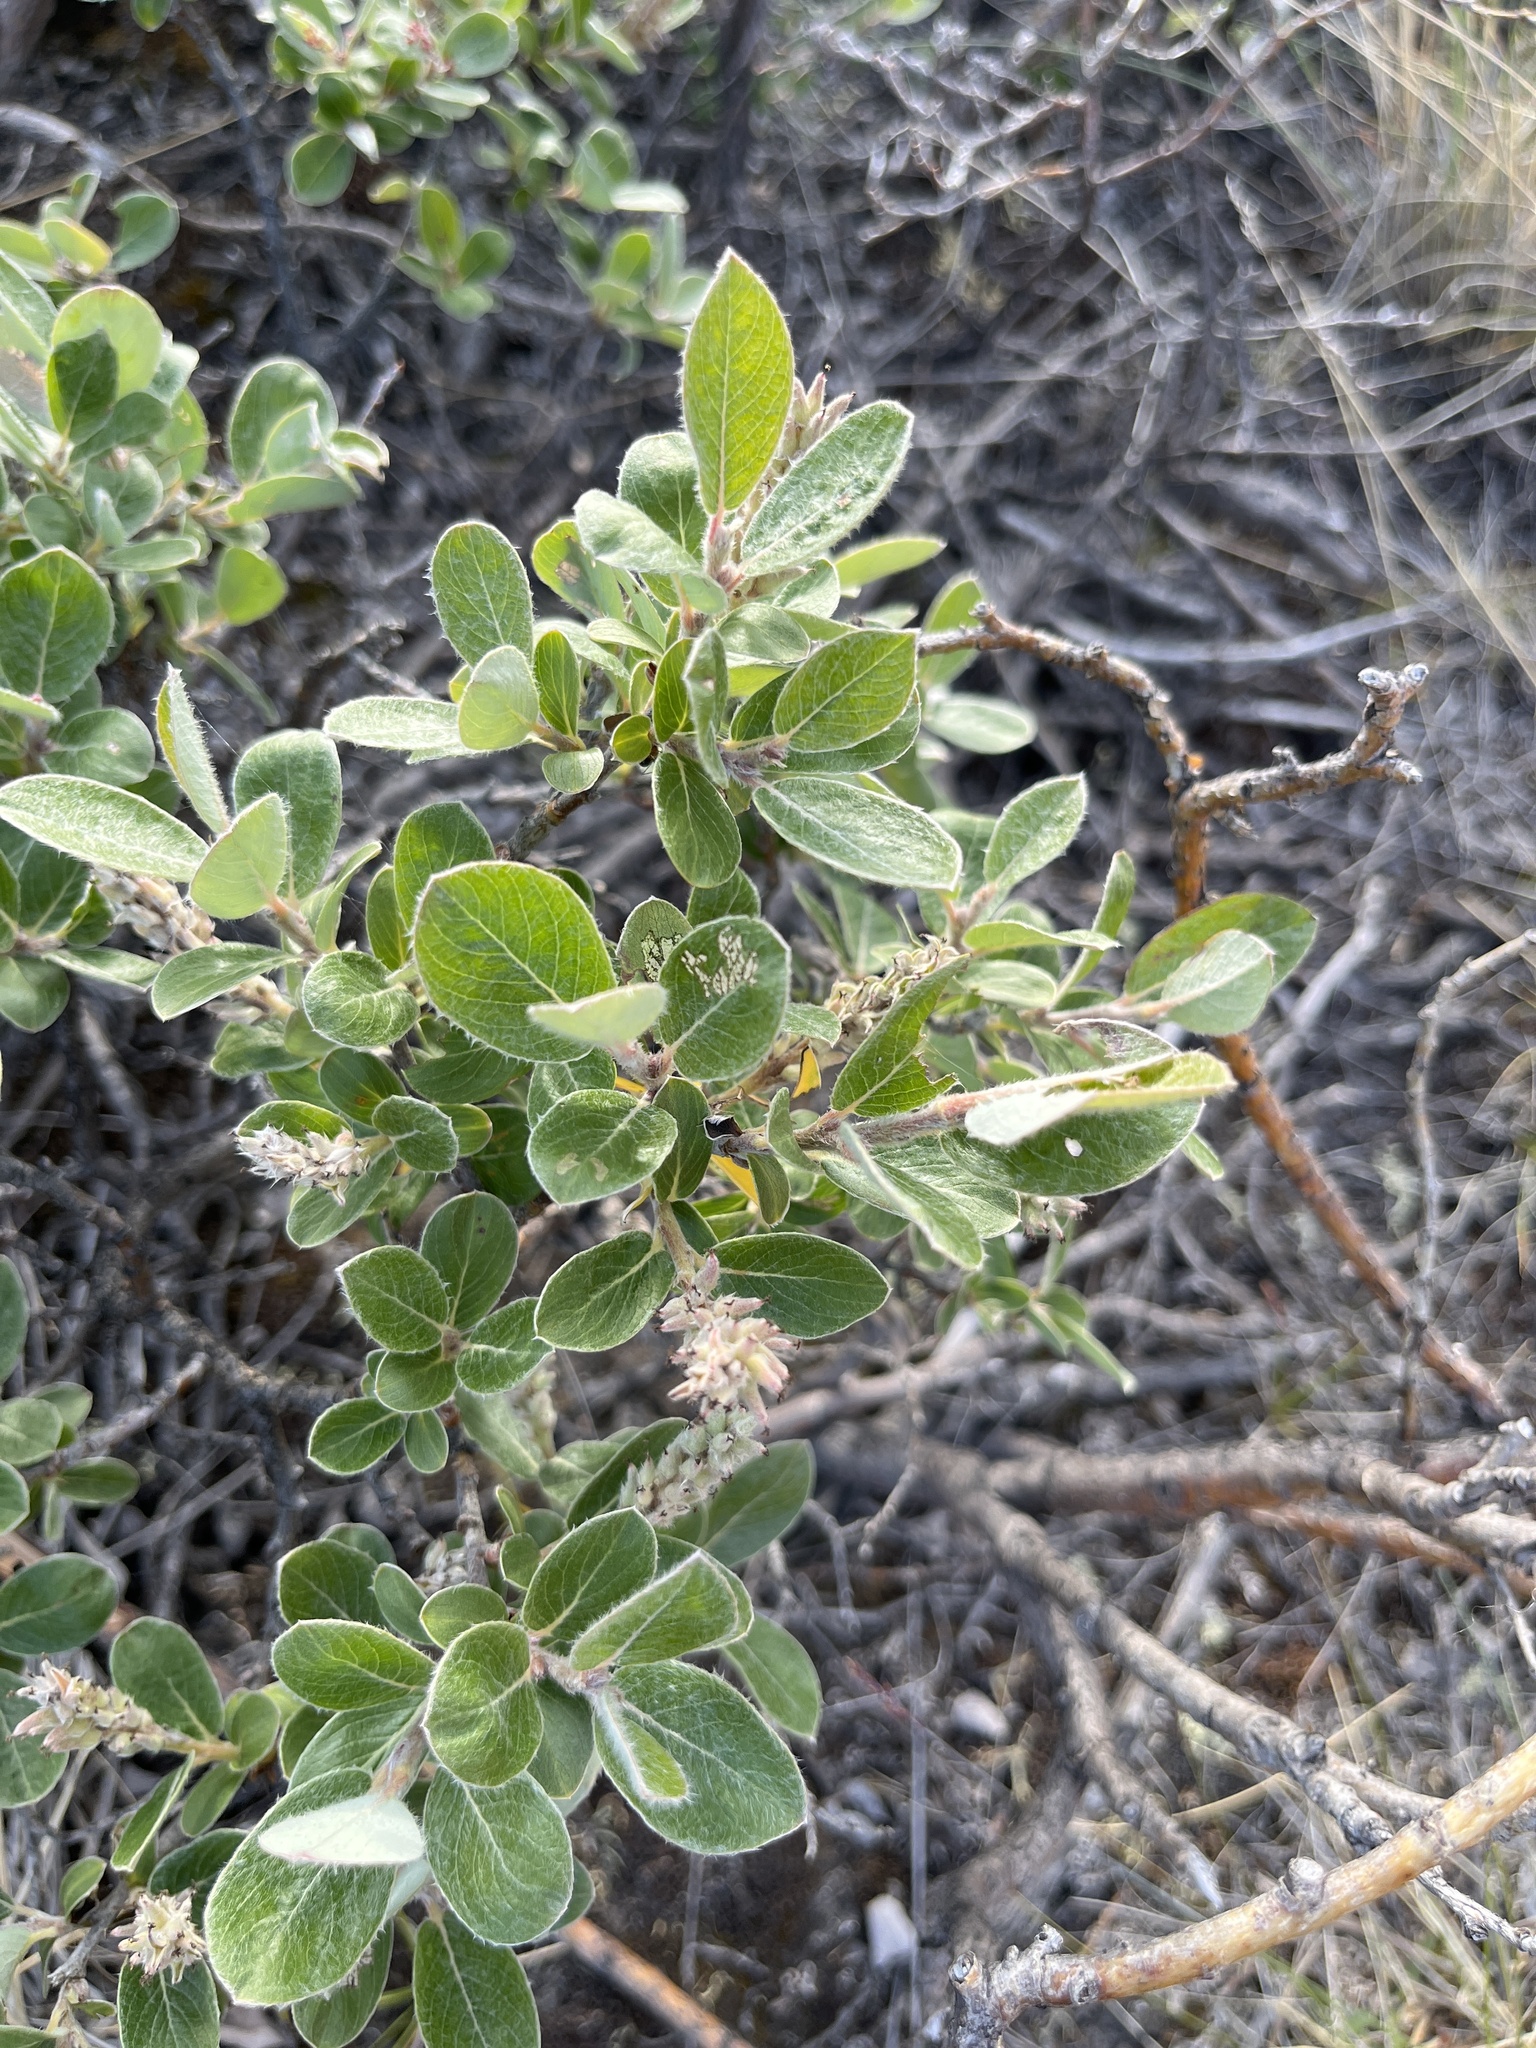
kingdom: Plantae
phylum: Tracheophyta
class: Magnoliopsida
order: Malpighiales
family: Salicaceae
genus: Salix
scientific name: Salix glauca
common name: Glaucous willow
